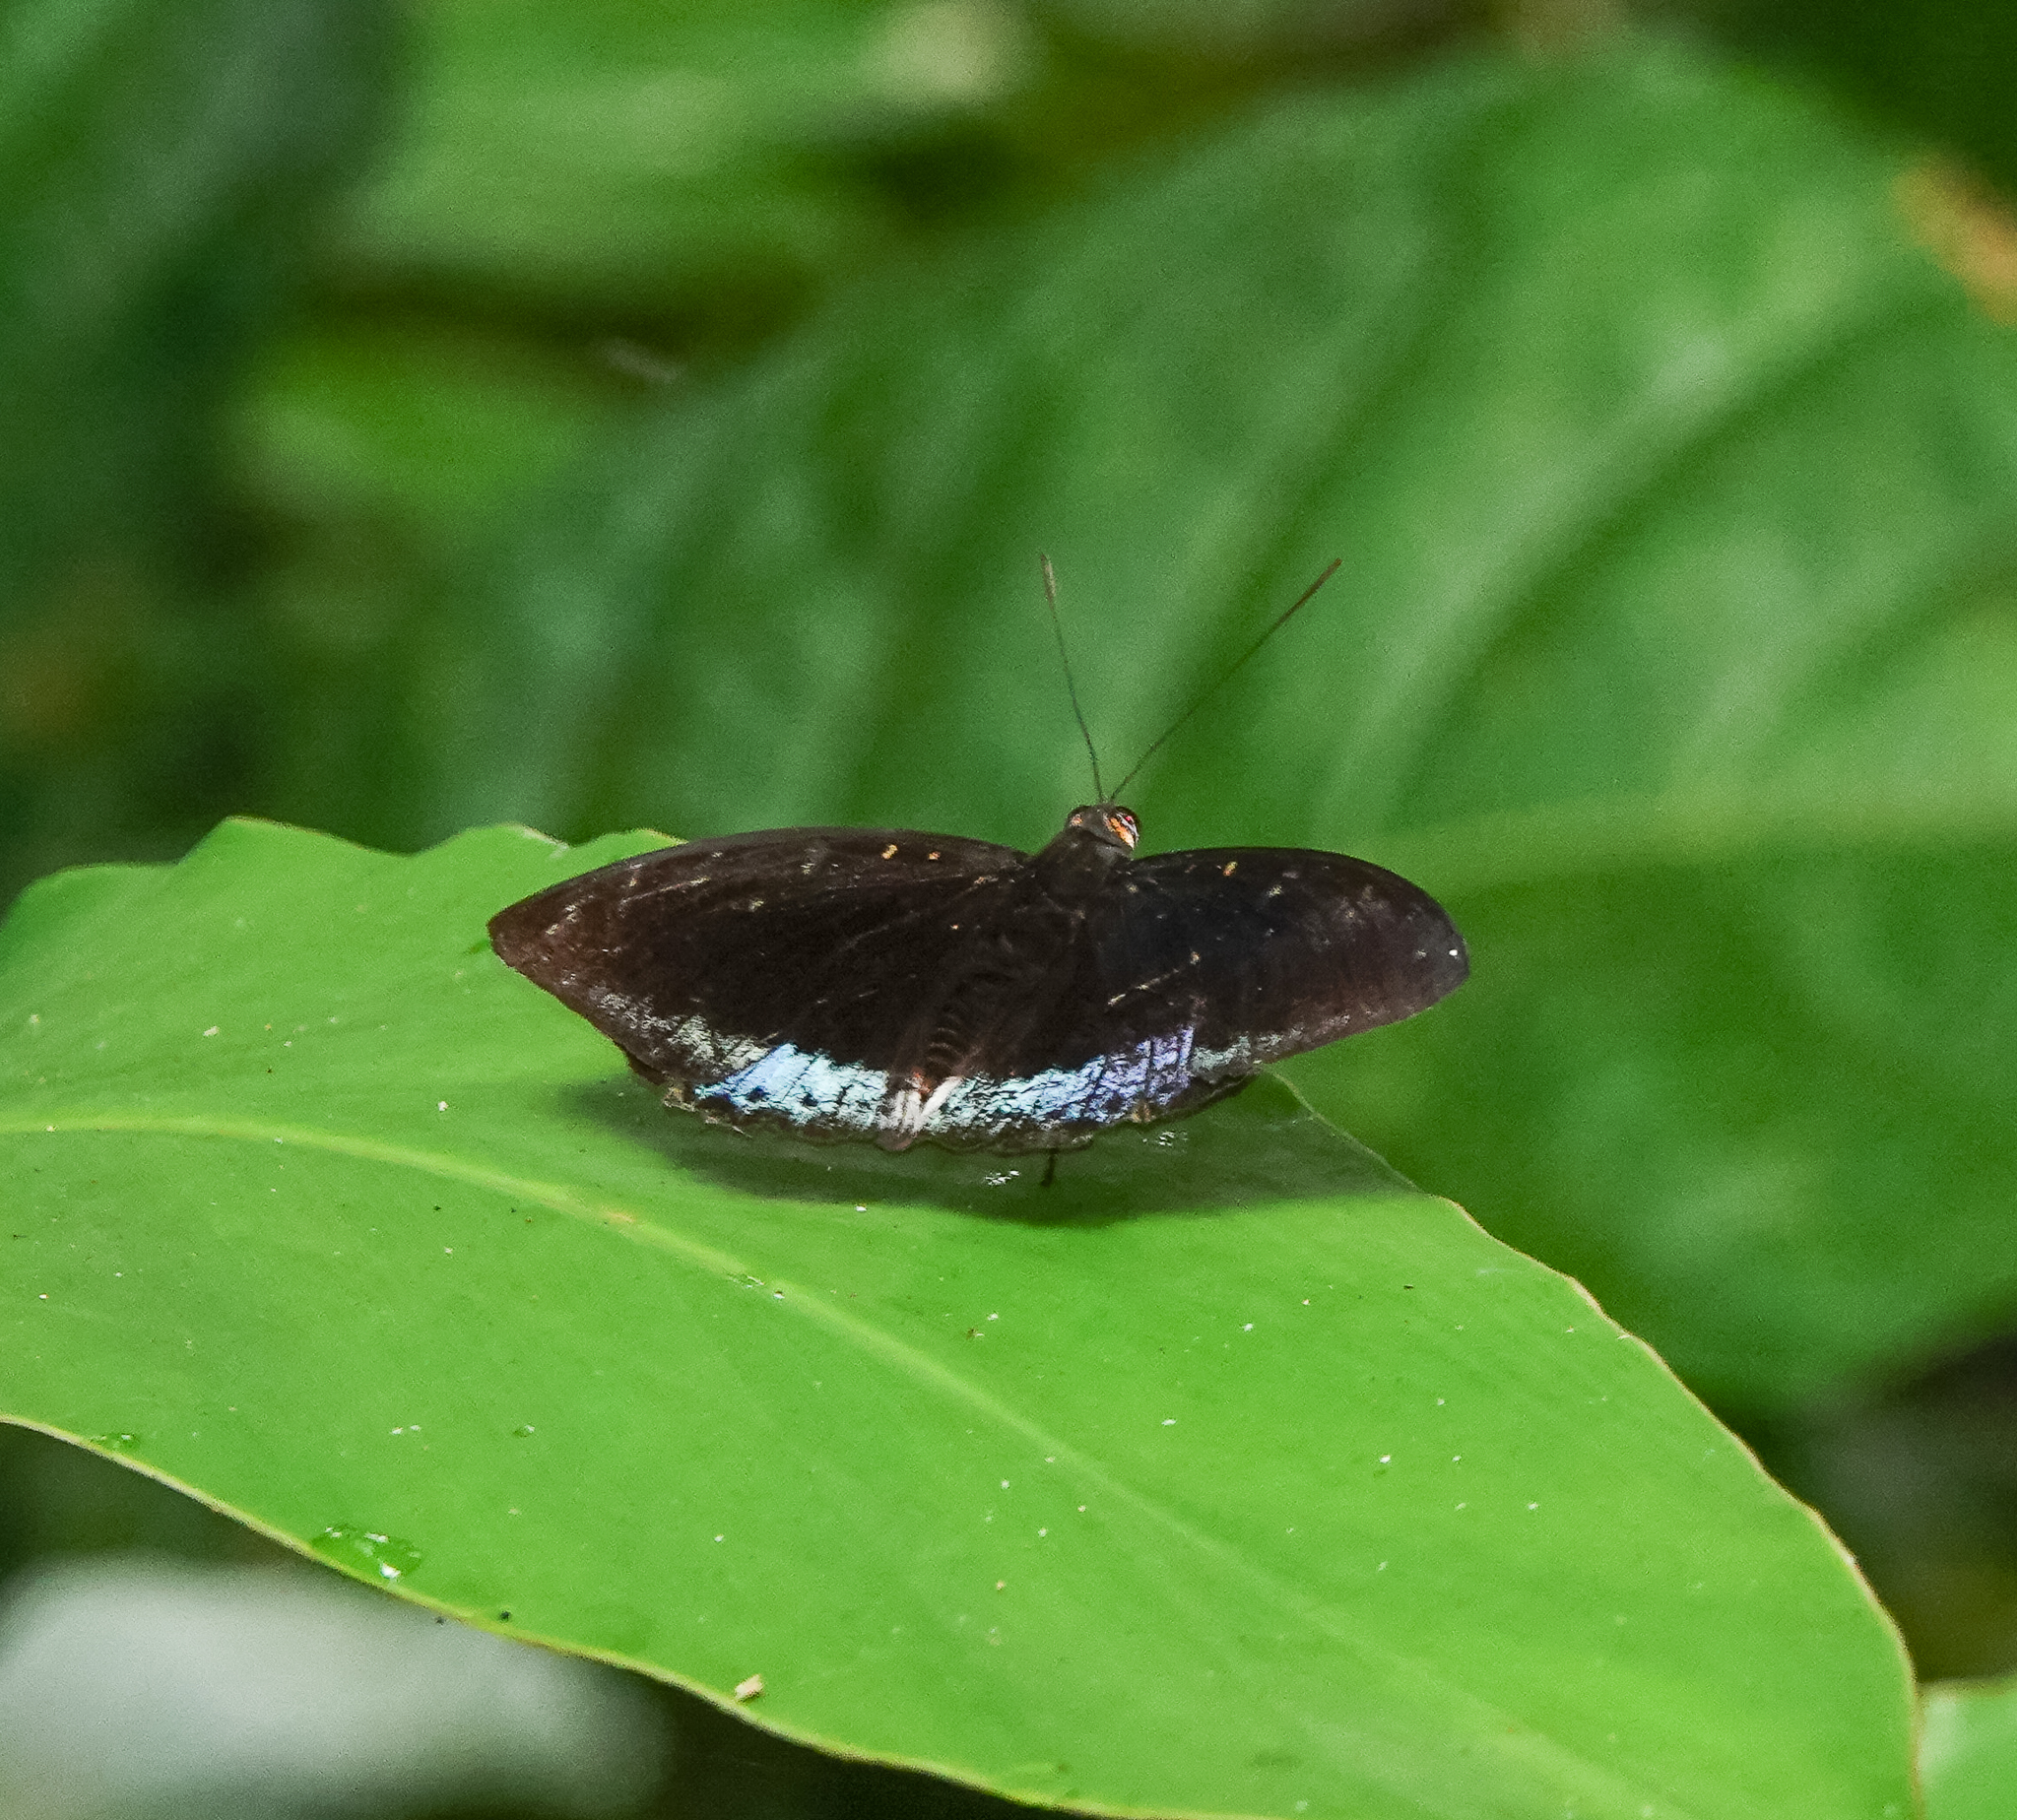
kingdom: Animalia
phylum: Arthropoda
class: Insecta
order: Lepidoptera
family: Nymphalidae
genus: Lexias
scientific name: Lexias dirtea
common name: Black-tipped archduke
